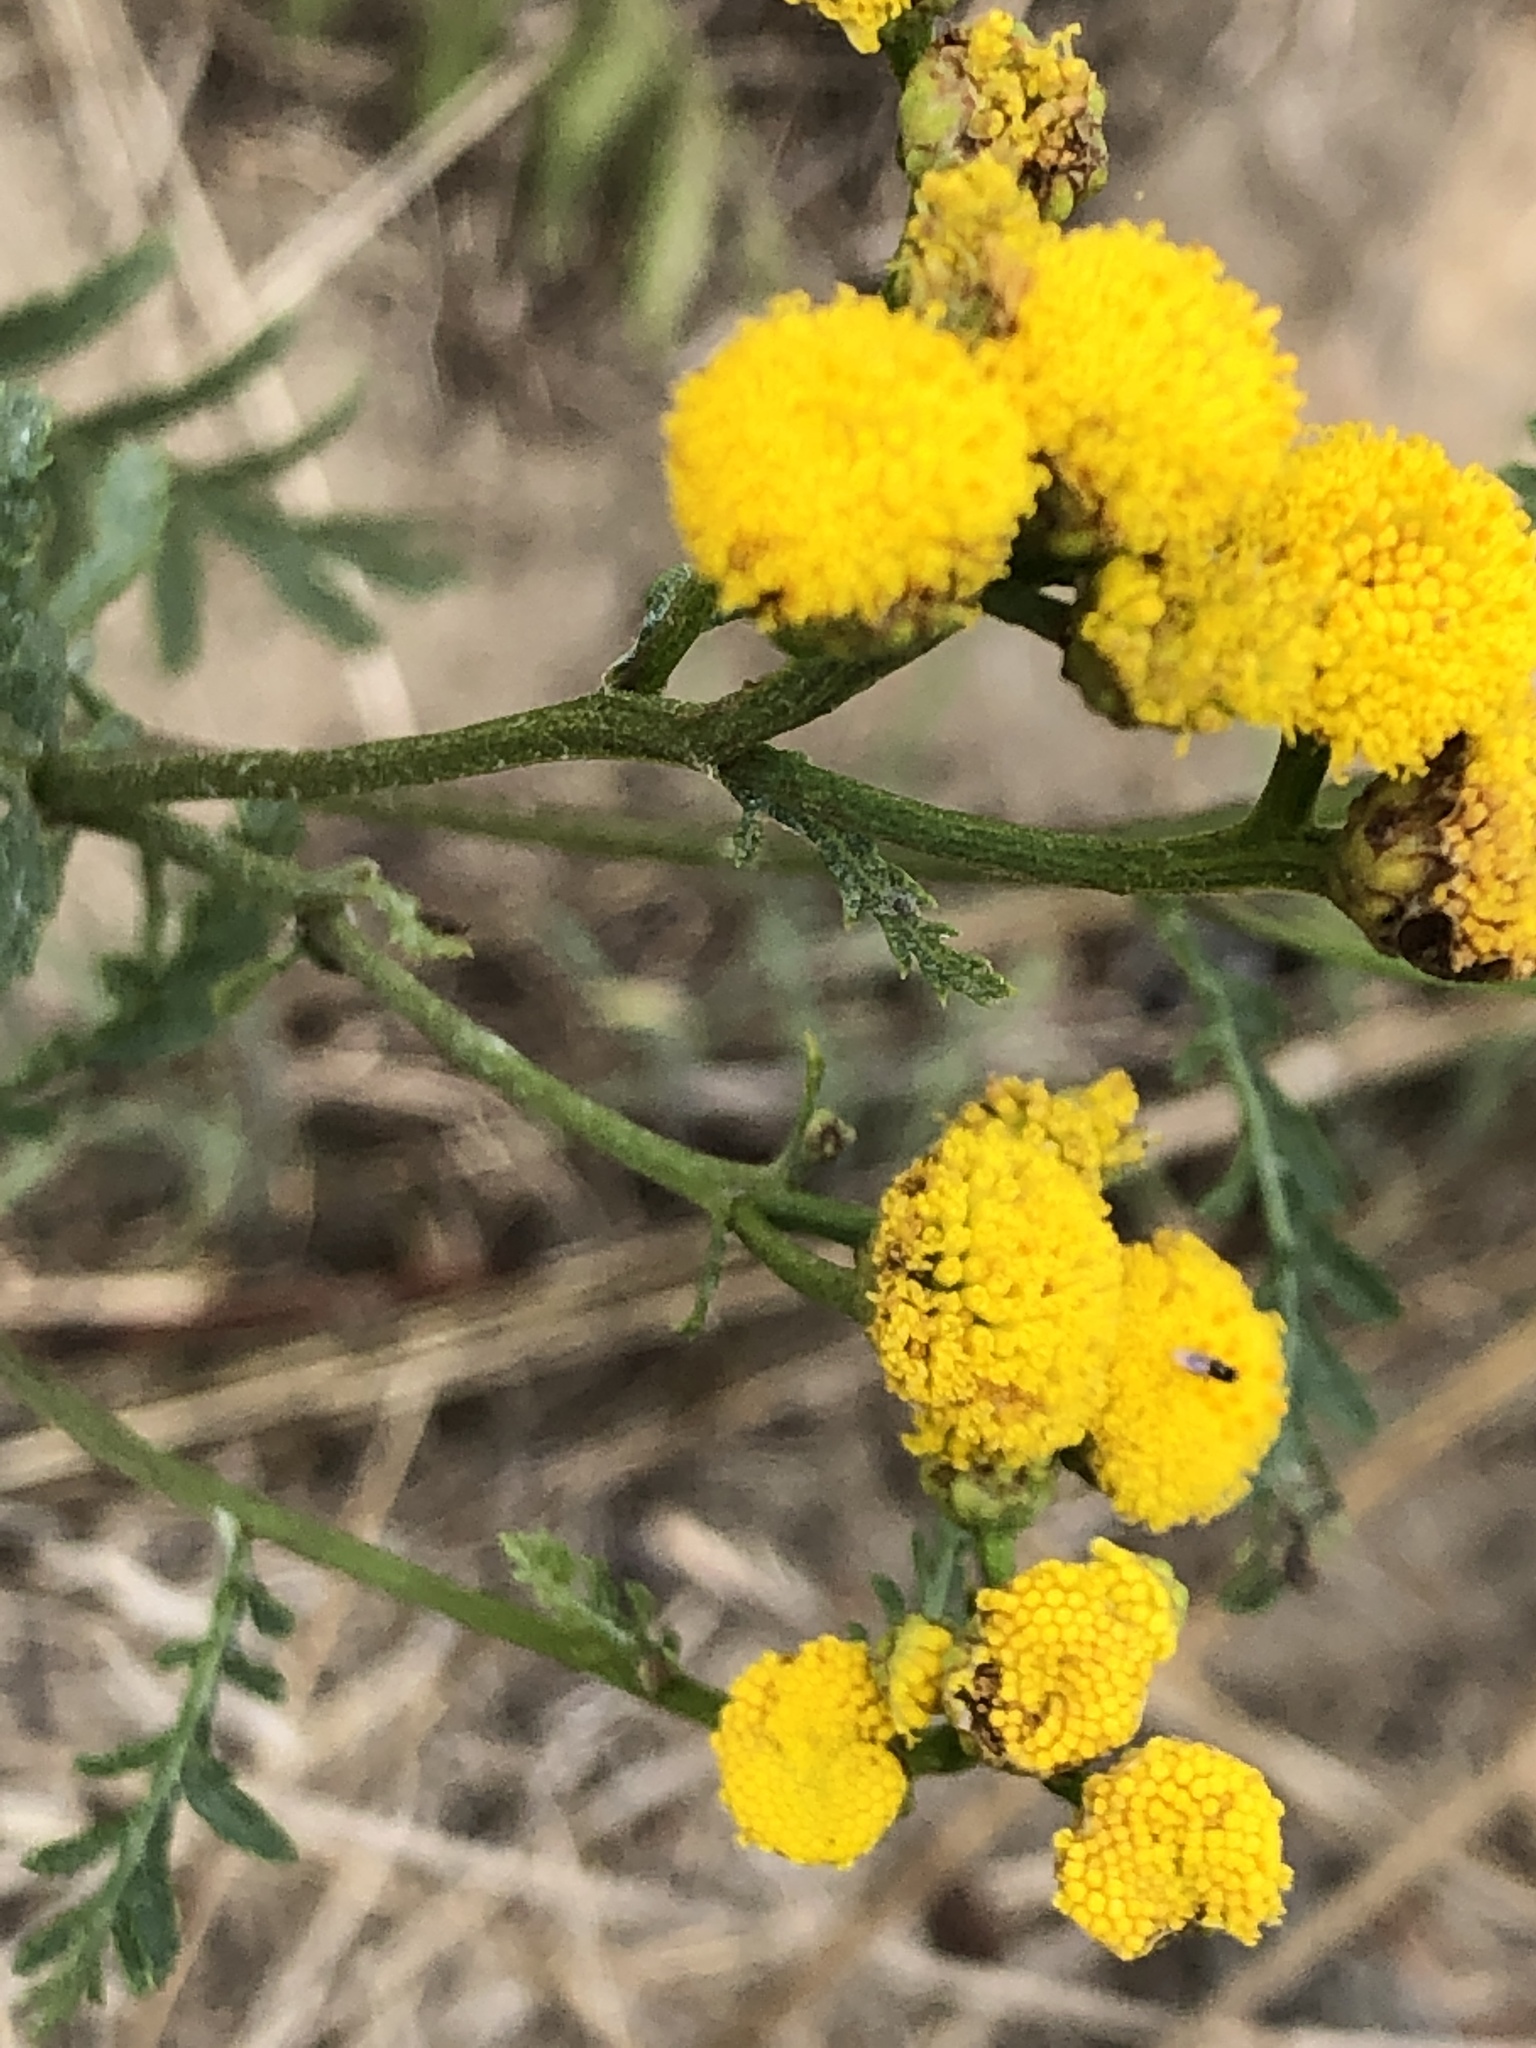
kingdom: Plantae
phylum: Tracheophyta
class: Magnoliopsida
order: Asterales
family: Asteraceae
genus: Tanacetum
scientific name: Tanacetum vulgare
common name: Common tansy
